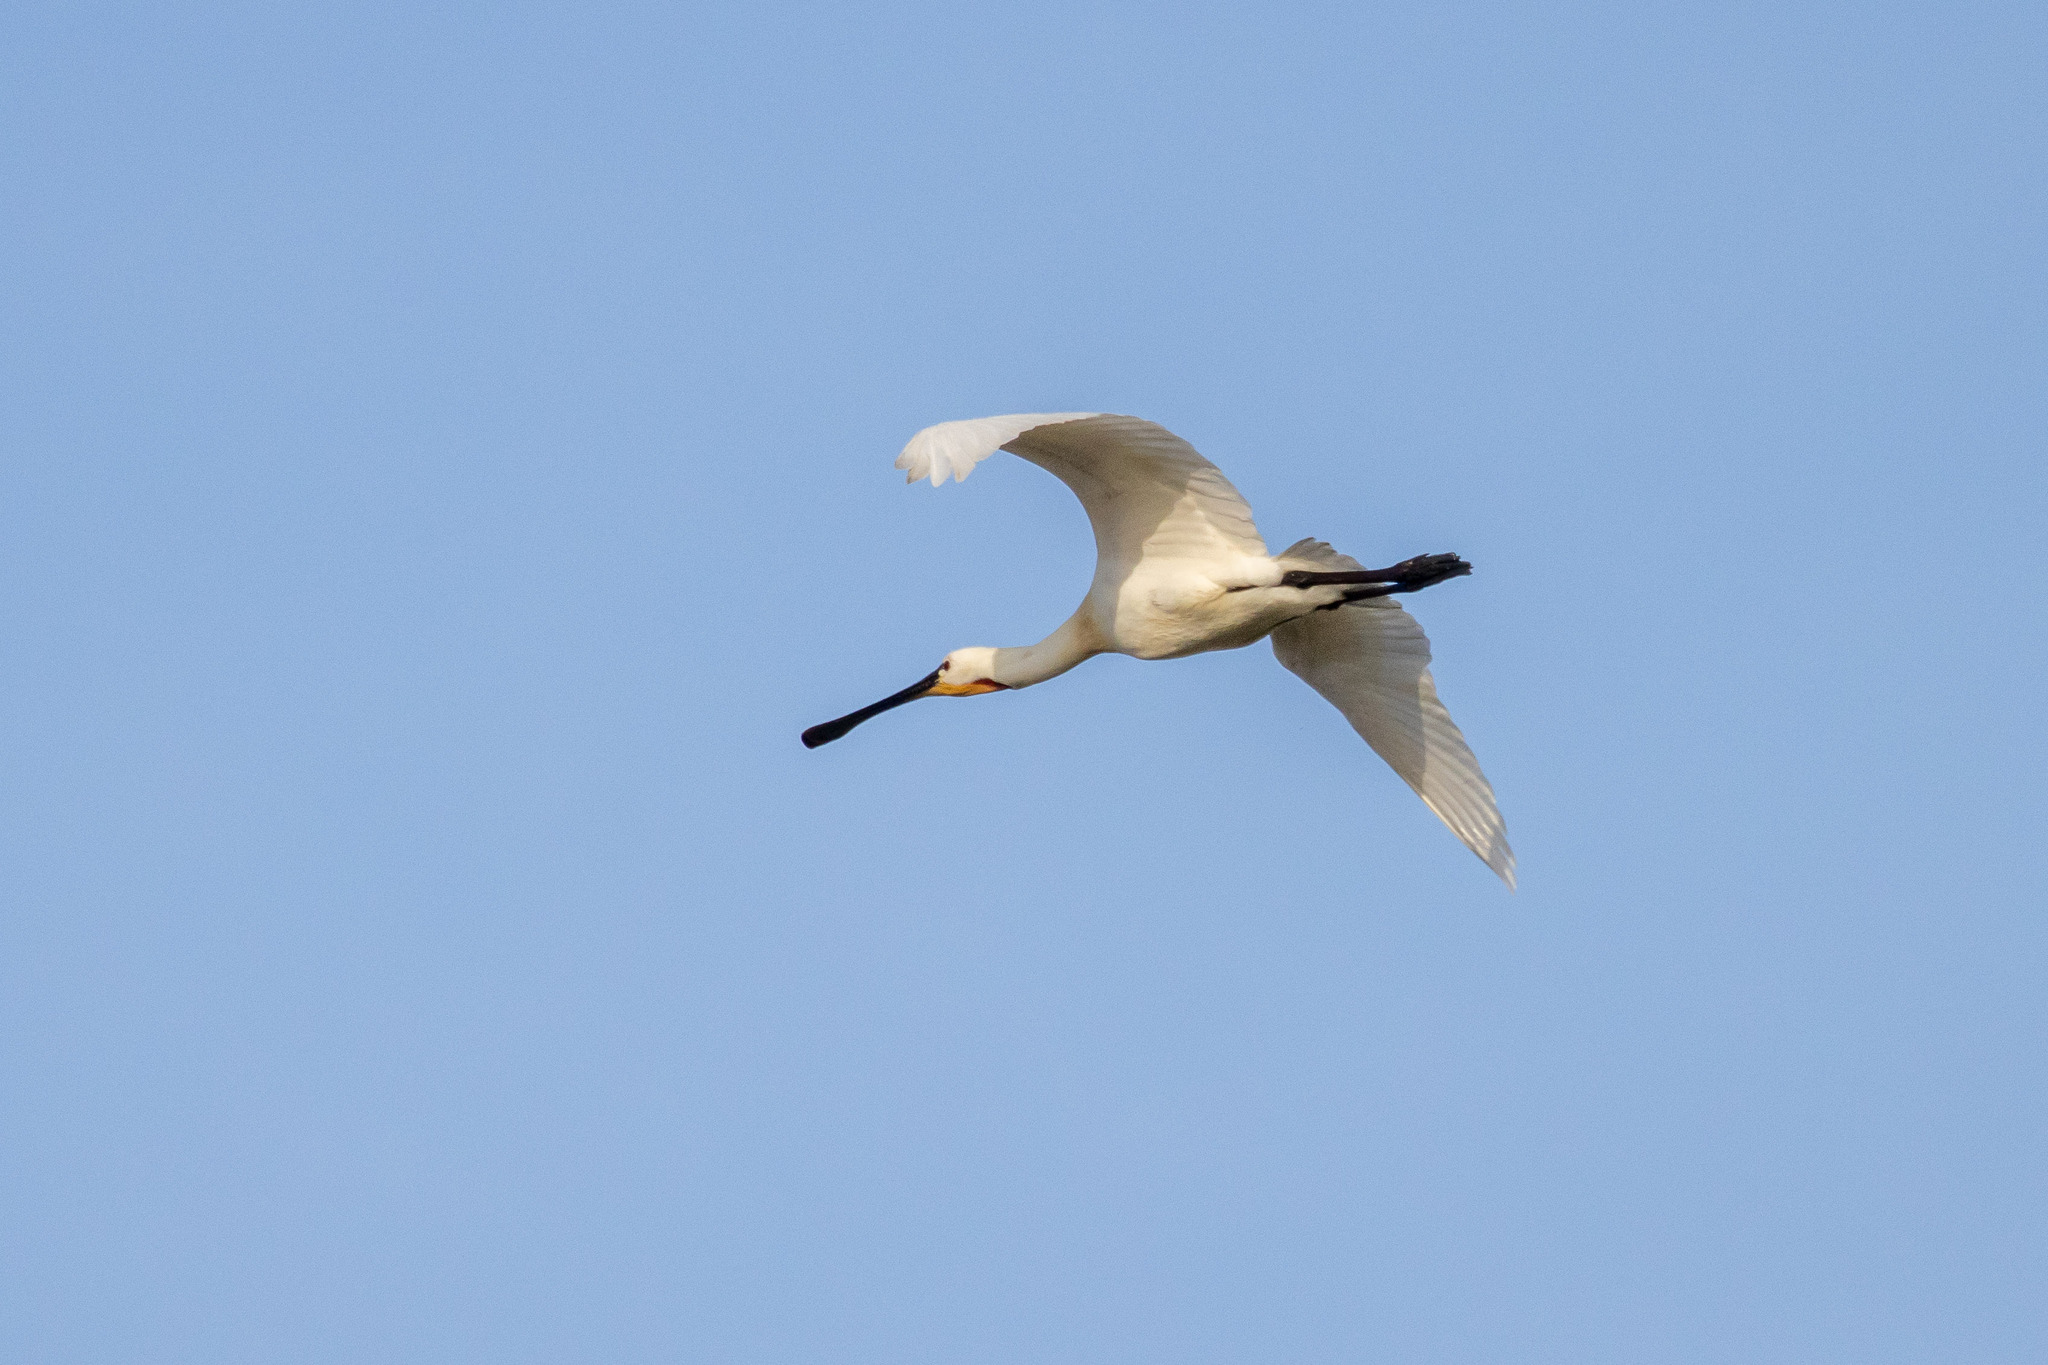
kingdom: Animalia
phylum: Chordata
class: Aves
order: Pelecaniformes
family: Threskiornithidae
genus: Platalea
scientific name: Platalea leucorodia
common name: Eurasian spoonbill
